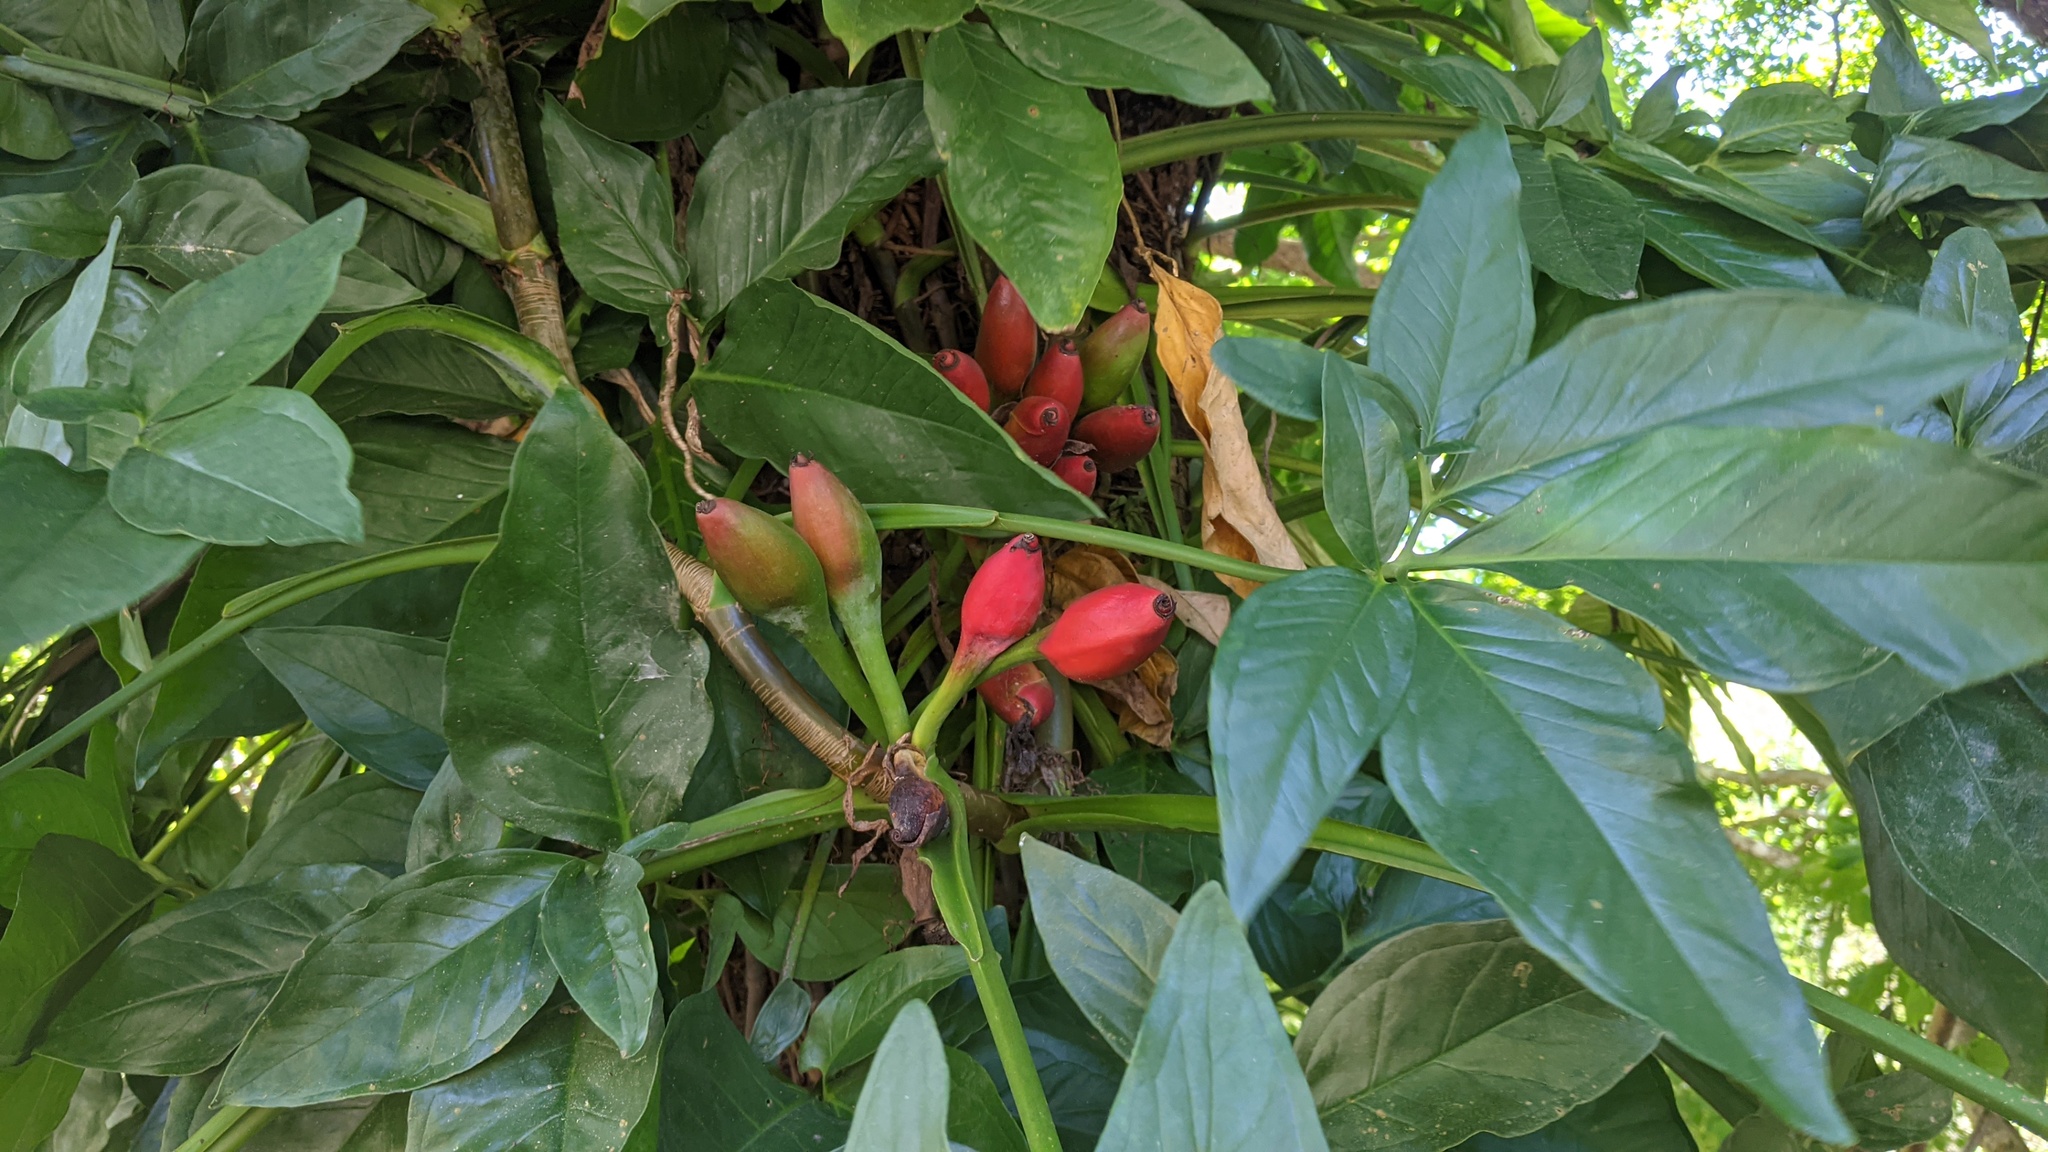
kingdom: Plantae
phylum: Tracheophyta
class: Liliopsida
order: Alismatales
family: Araceae
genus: Syngonium
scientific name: Syngonium podophyllum
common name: American evergreen
